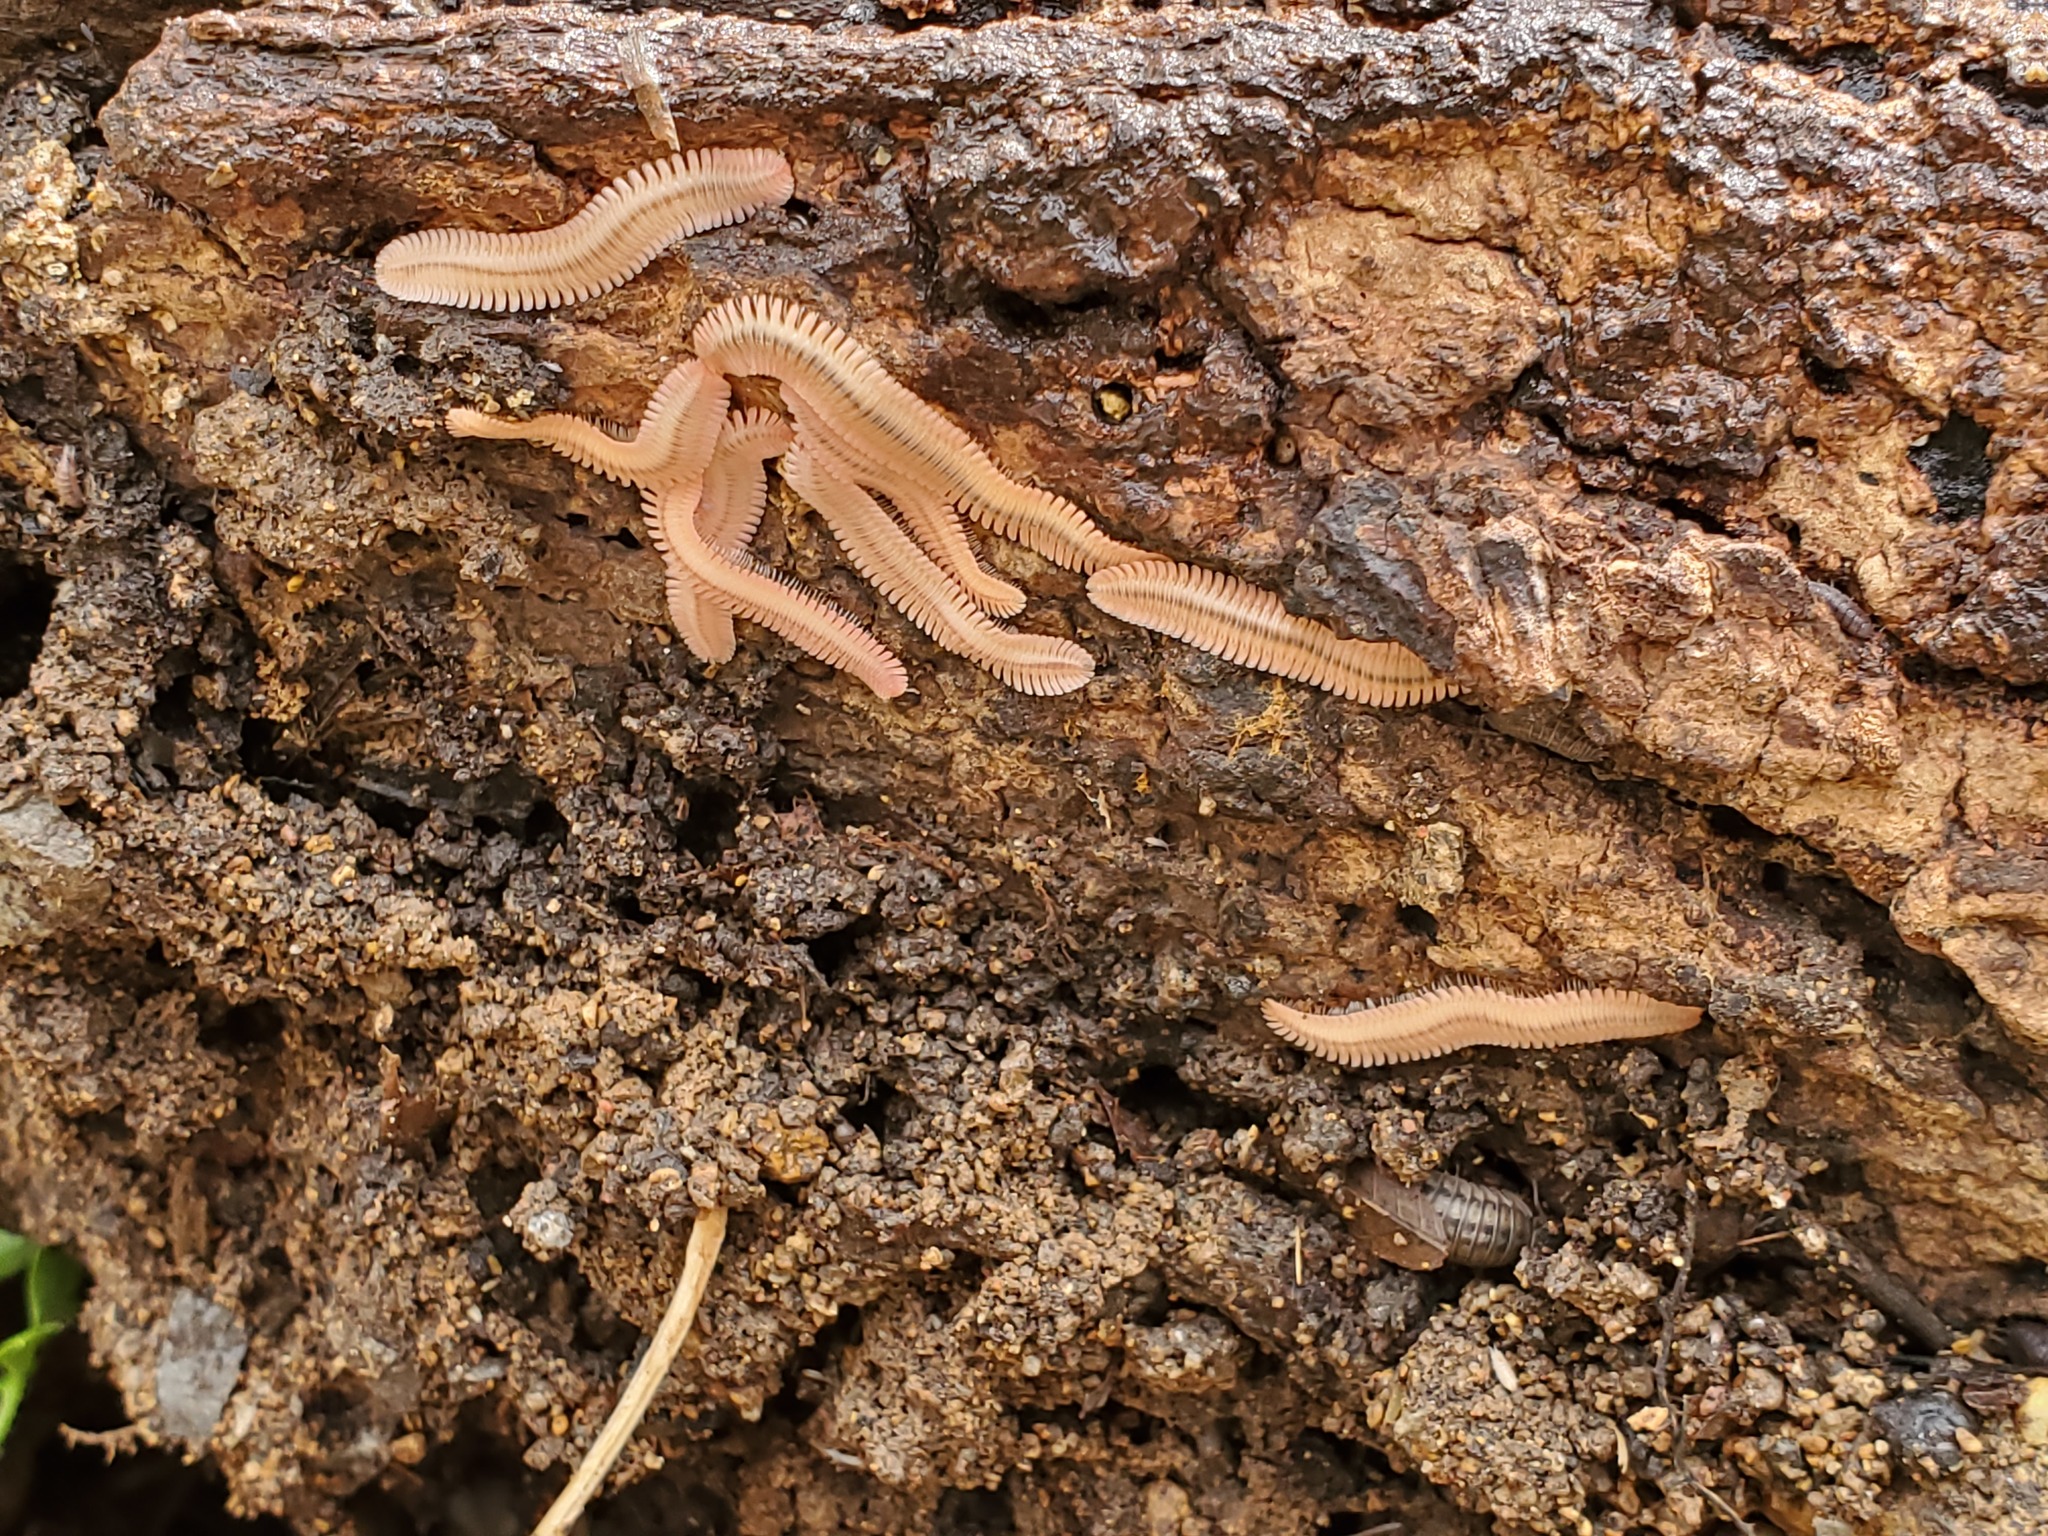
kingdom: Animalia
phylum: Arthropoda
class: Diplopoda
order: Platydesmida
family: Andrognathidae
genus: Brachycybe
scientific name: Brachycybe lecontii
